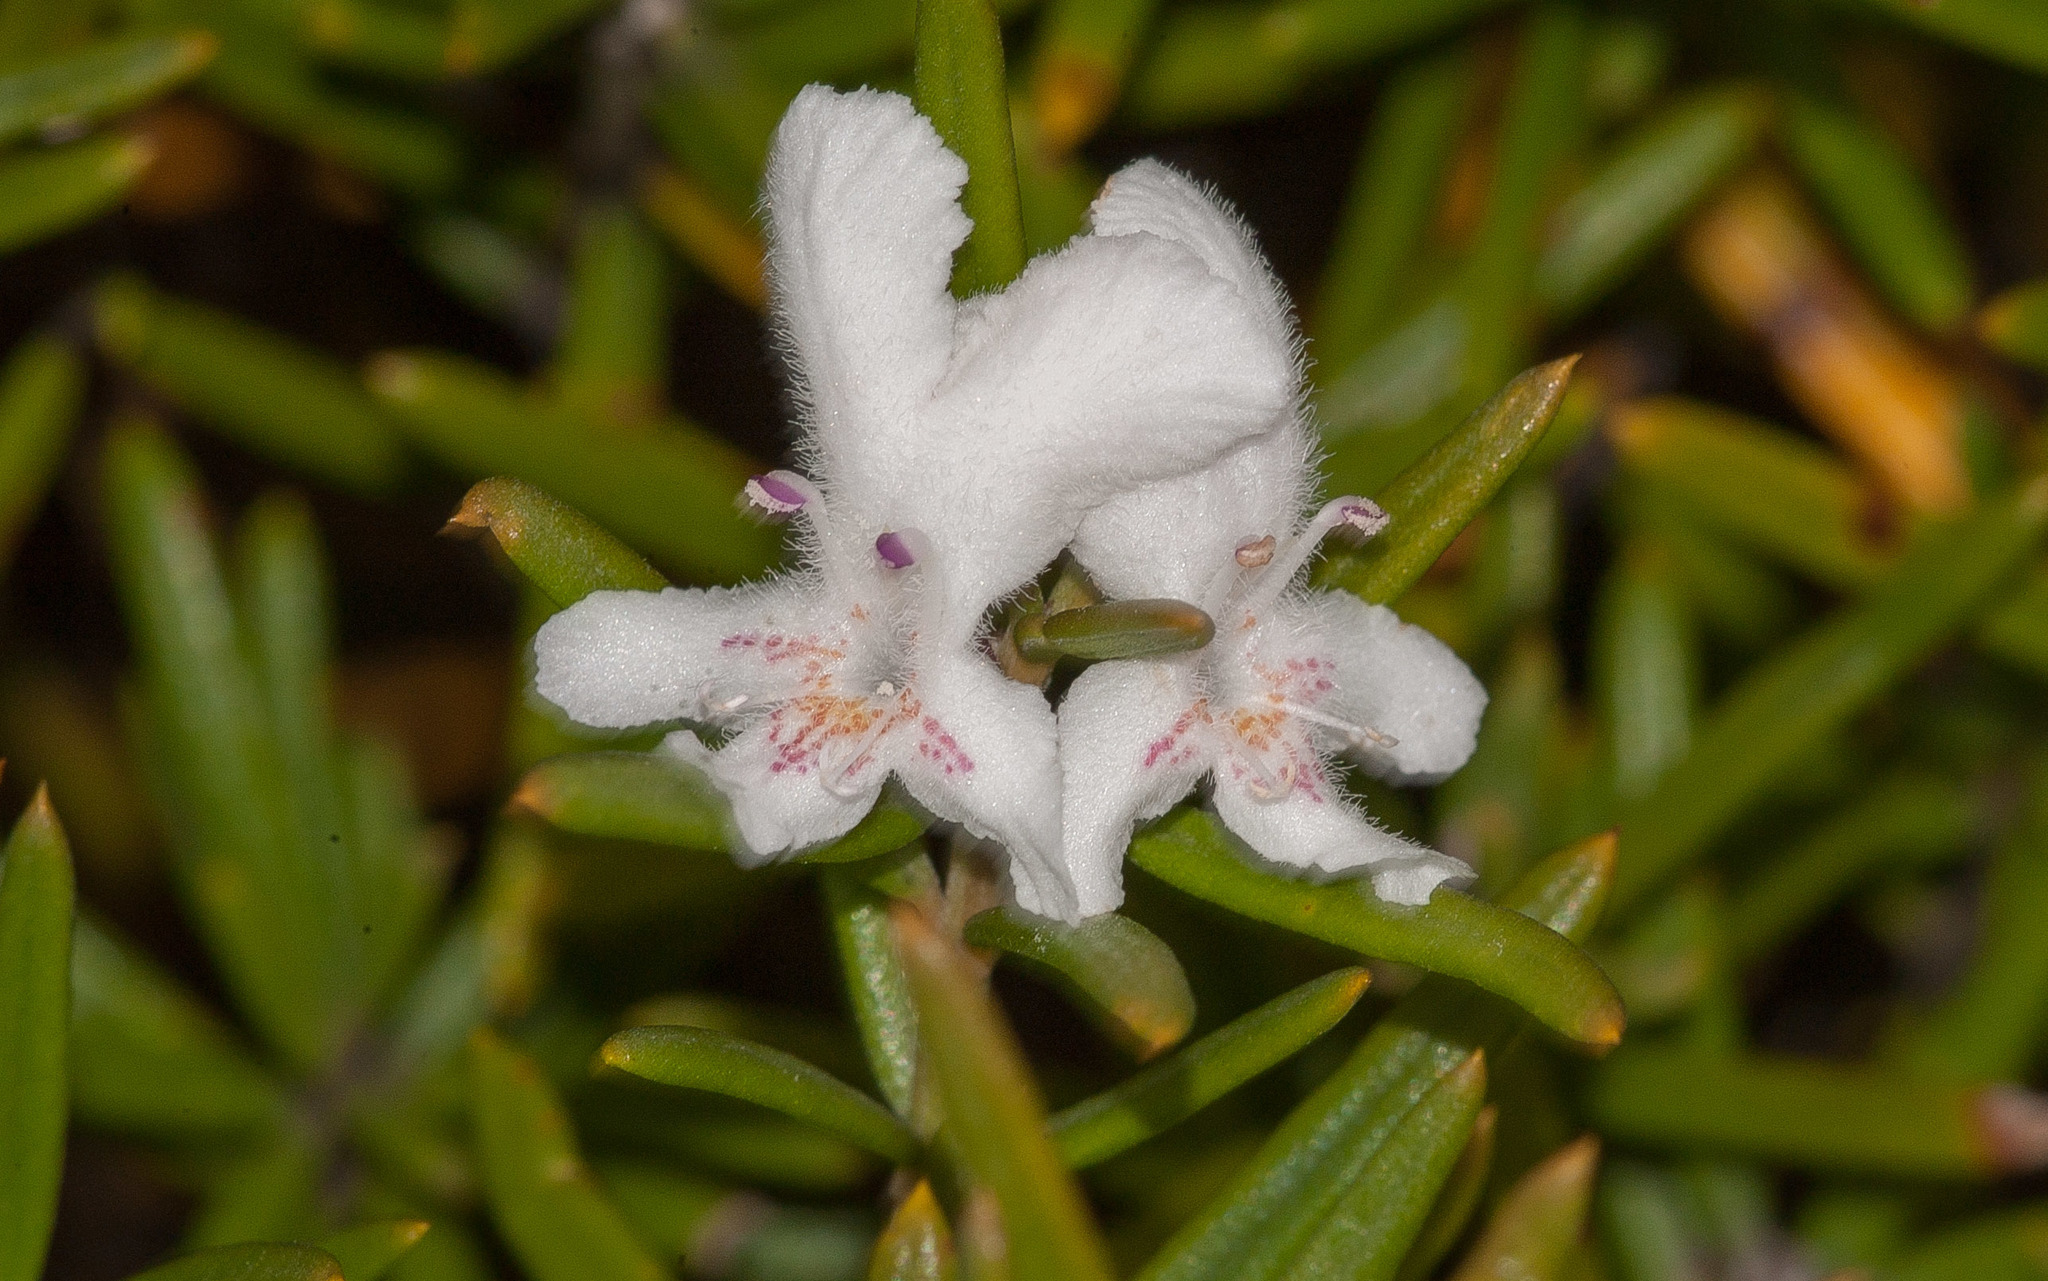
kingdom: Plantae
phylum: Tracheophyta
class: Magnoliopsida
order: Lamiales
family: Lamiaceae
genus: Westringia
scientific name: Westringia rigida
